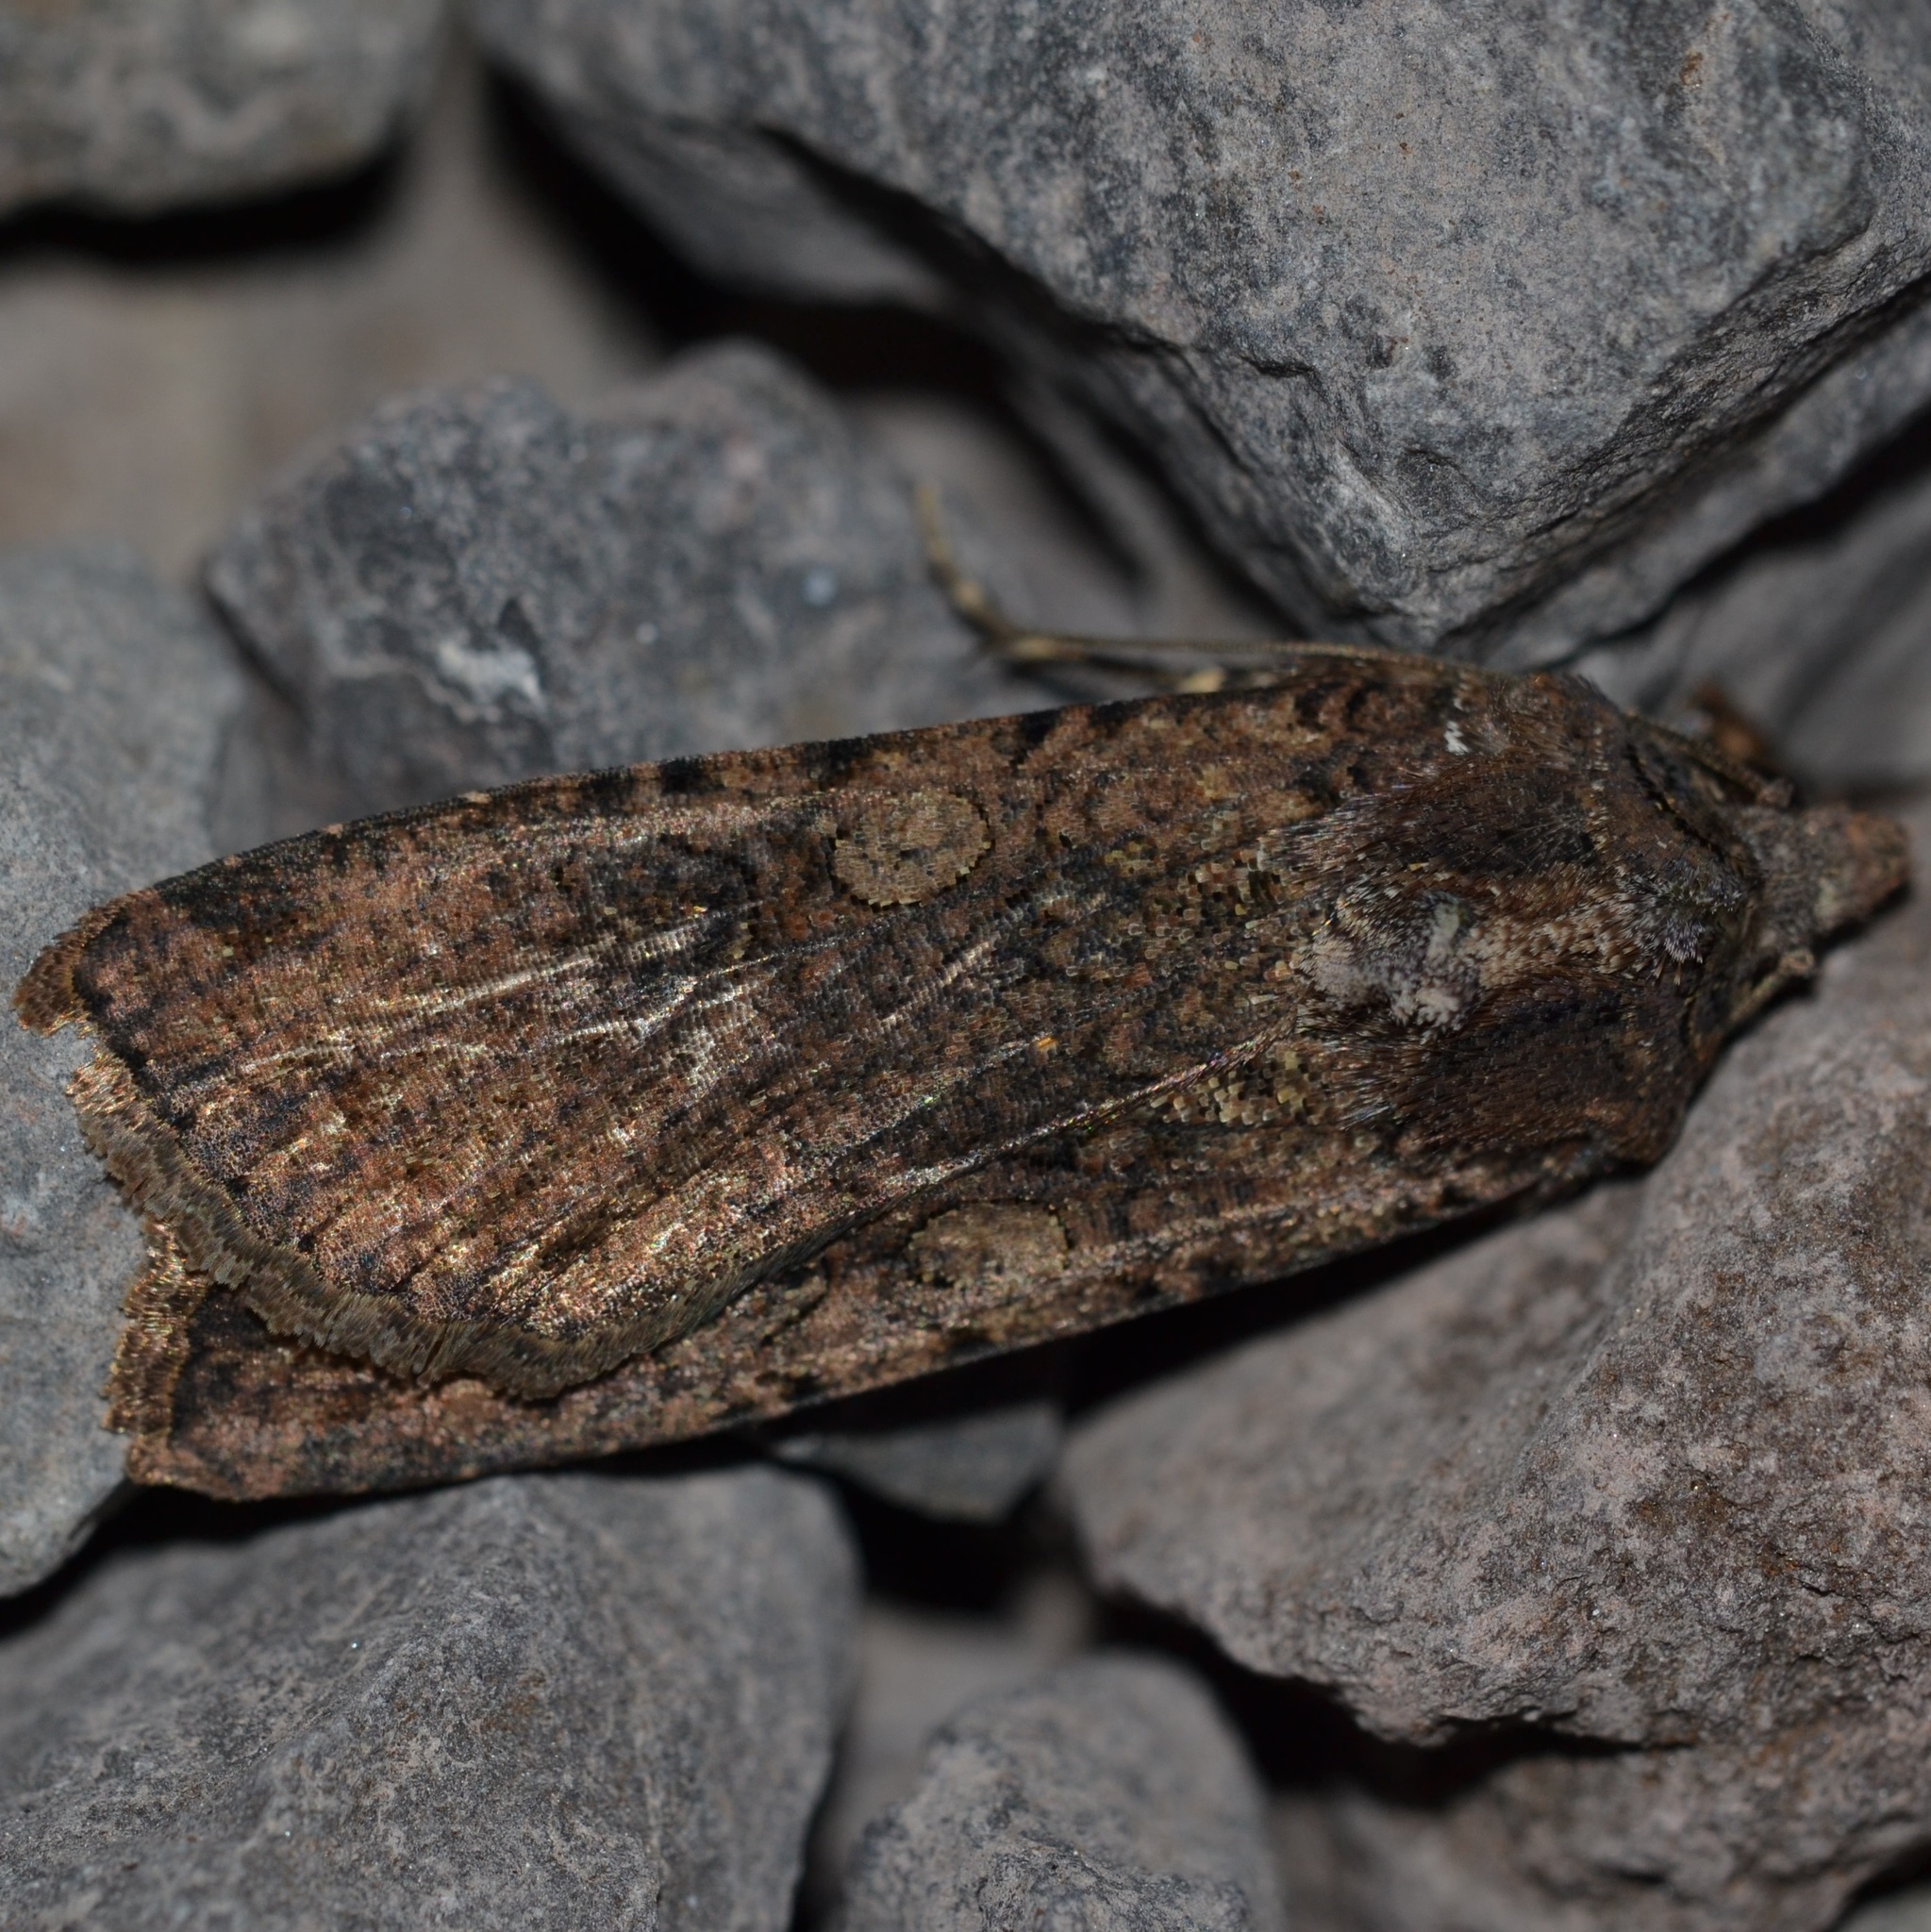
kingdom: Animalia
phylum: Arthropoda
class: Insecta
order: Lepidoptera
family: Noctuidae
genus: Peridroma
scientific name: Peridroma saucia
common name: Pearly underwing
